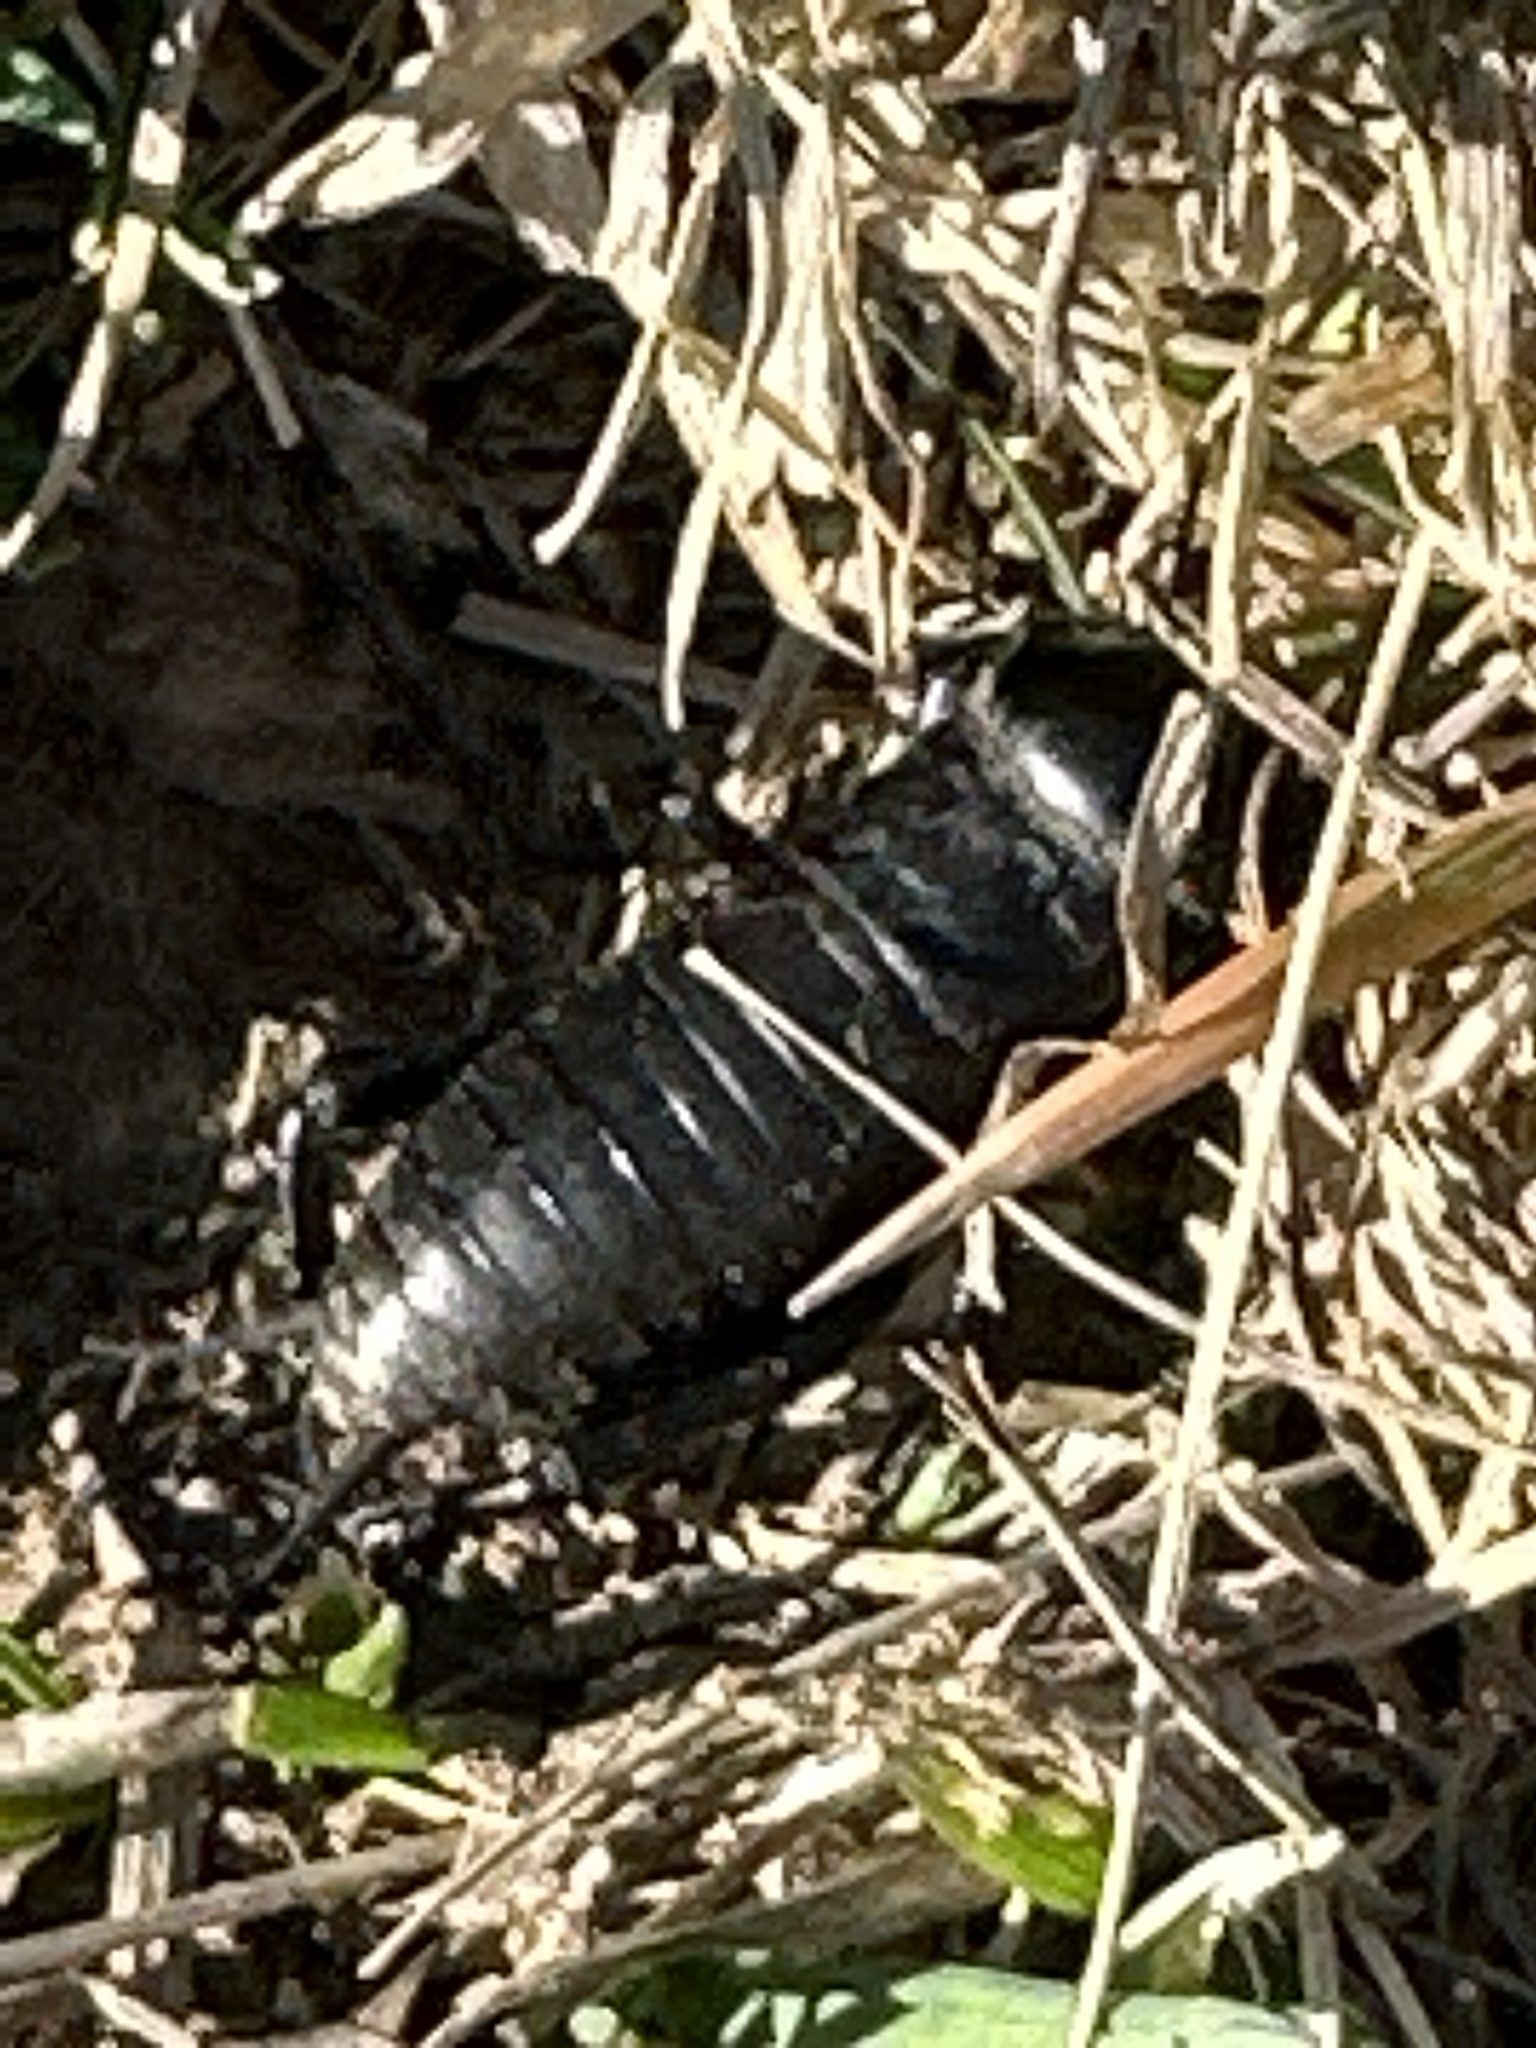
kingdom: Animalia
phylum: Arthropoda
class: Insecta
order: Orthoptera
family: Gryllidae
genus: Gryllus
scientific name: Gryllus campestris
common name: Field cricket
